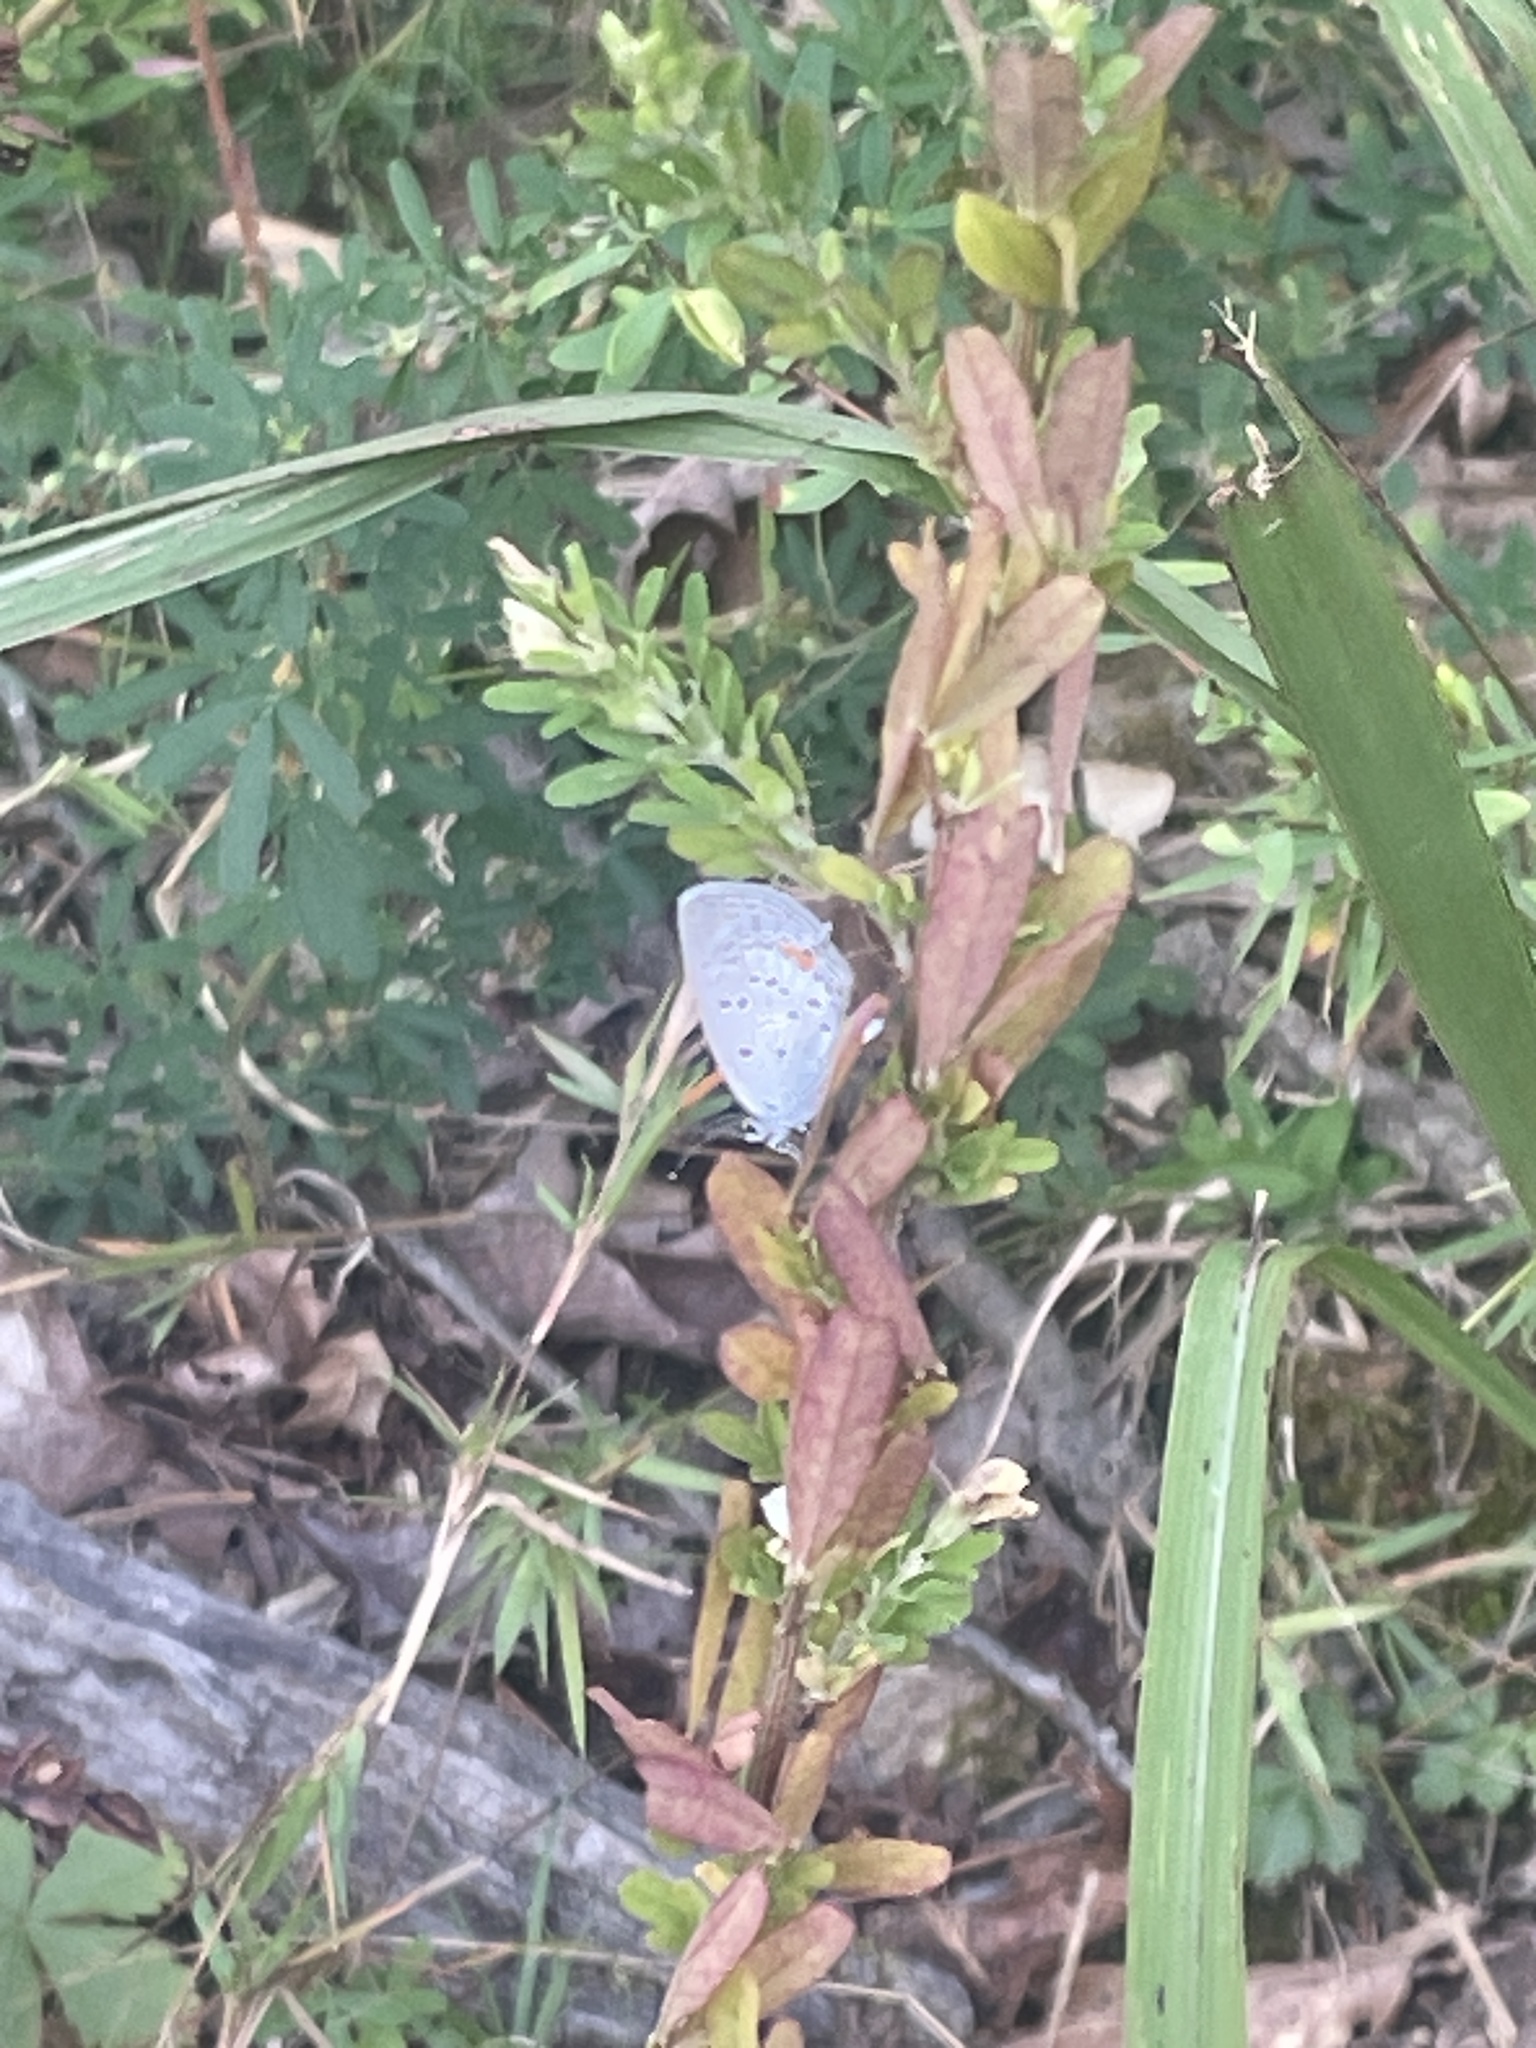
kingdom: Animalia
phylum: Arthropoda
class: Insecta
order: Lepidoptera
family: Lycaenidae
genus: Elkalyce
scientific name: Elkalyce comyntas
